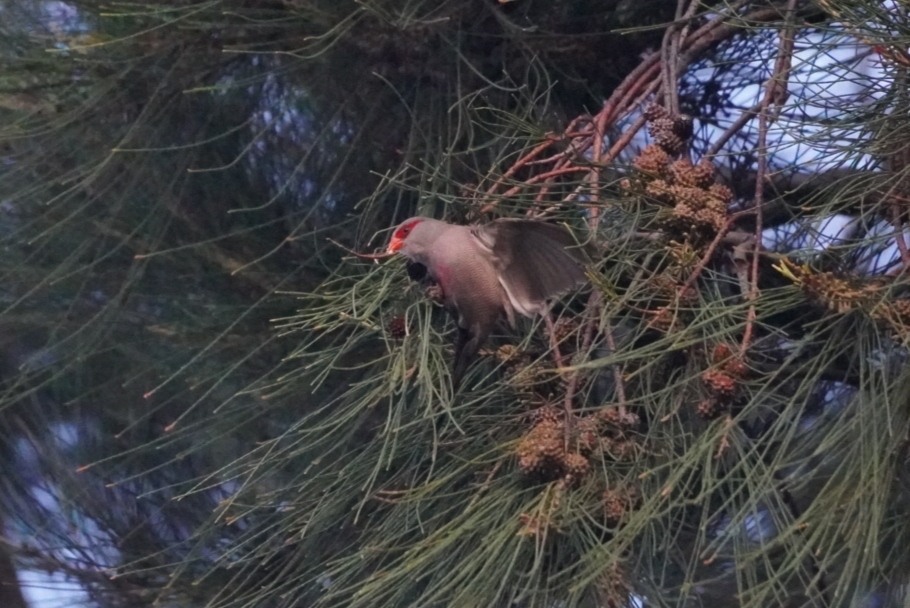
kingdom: Animalia
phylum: Chordata
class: Aves
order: Passeriformes
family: Estrildidae
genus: Estrilda
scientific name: Estrilda astrild
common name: Common waxbill
